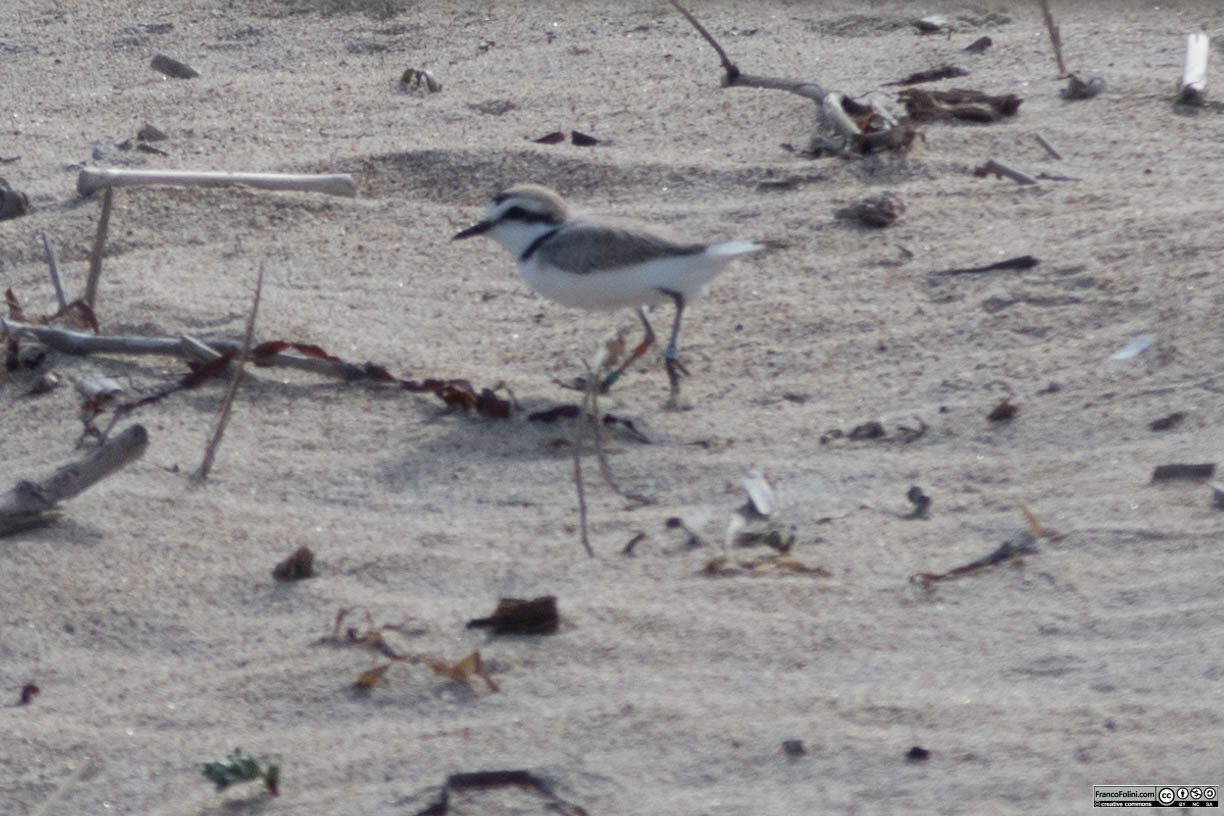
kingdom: Animalia
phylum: Chordata
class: Aves
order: Charadriiformes
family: Charadriidae
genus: Anarhynchus
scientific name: Anarhynchus
